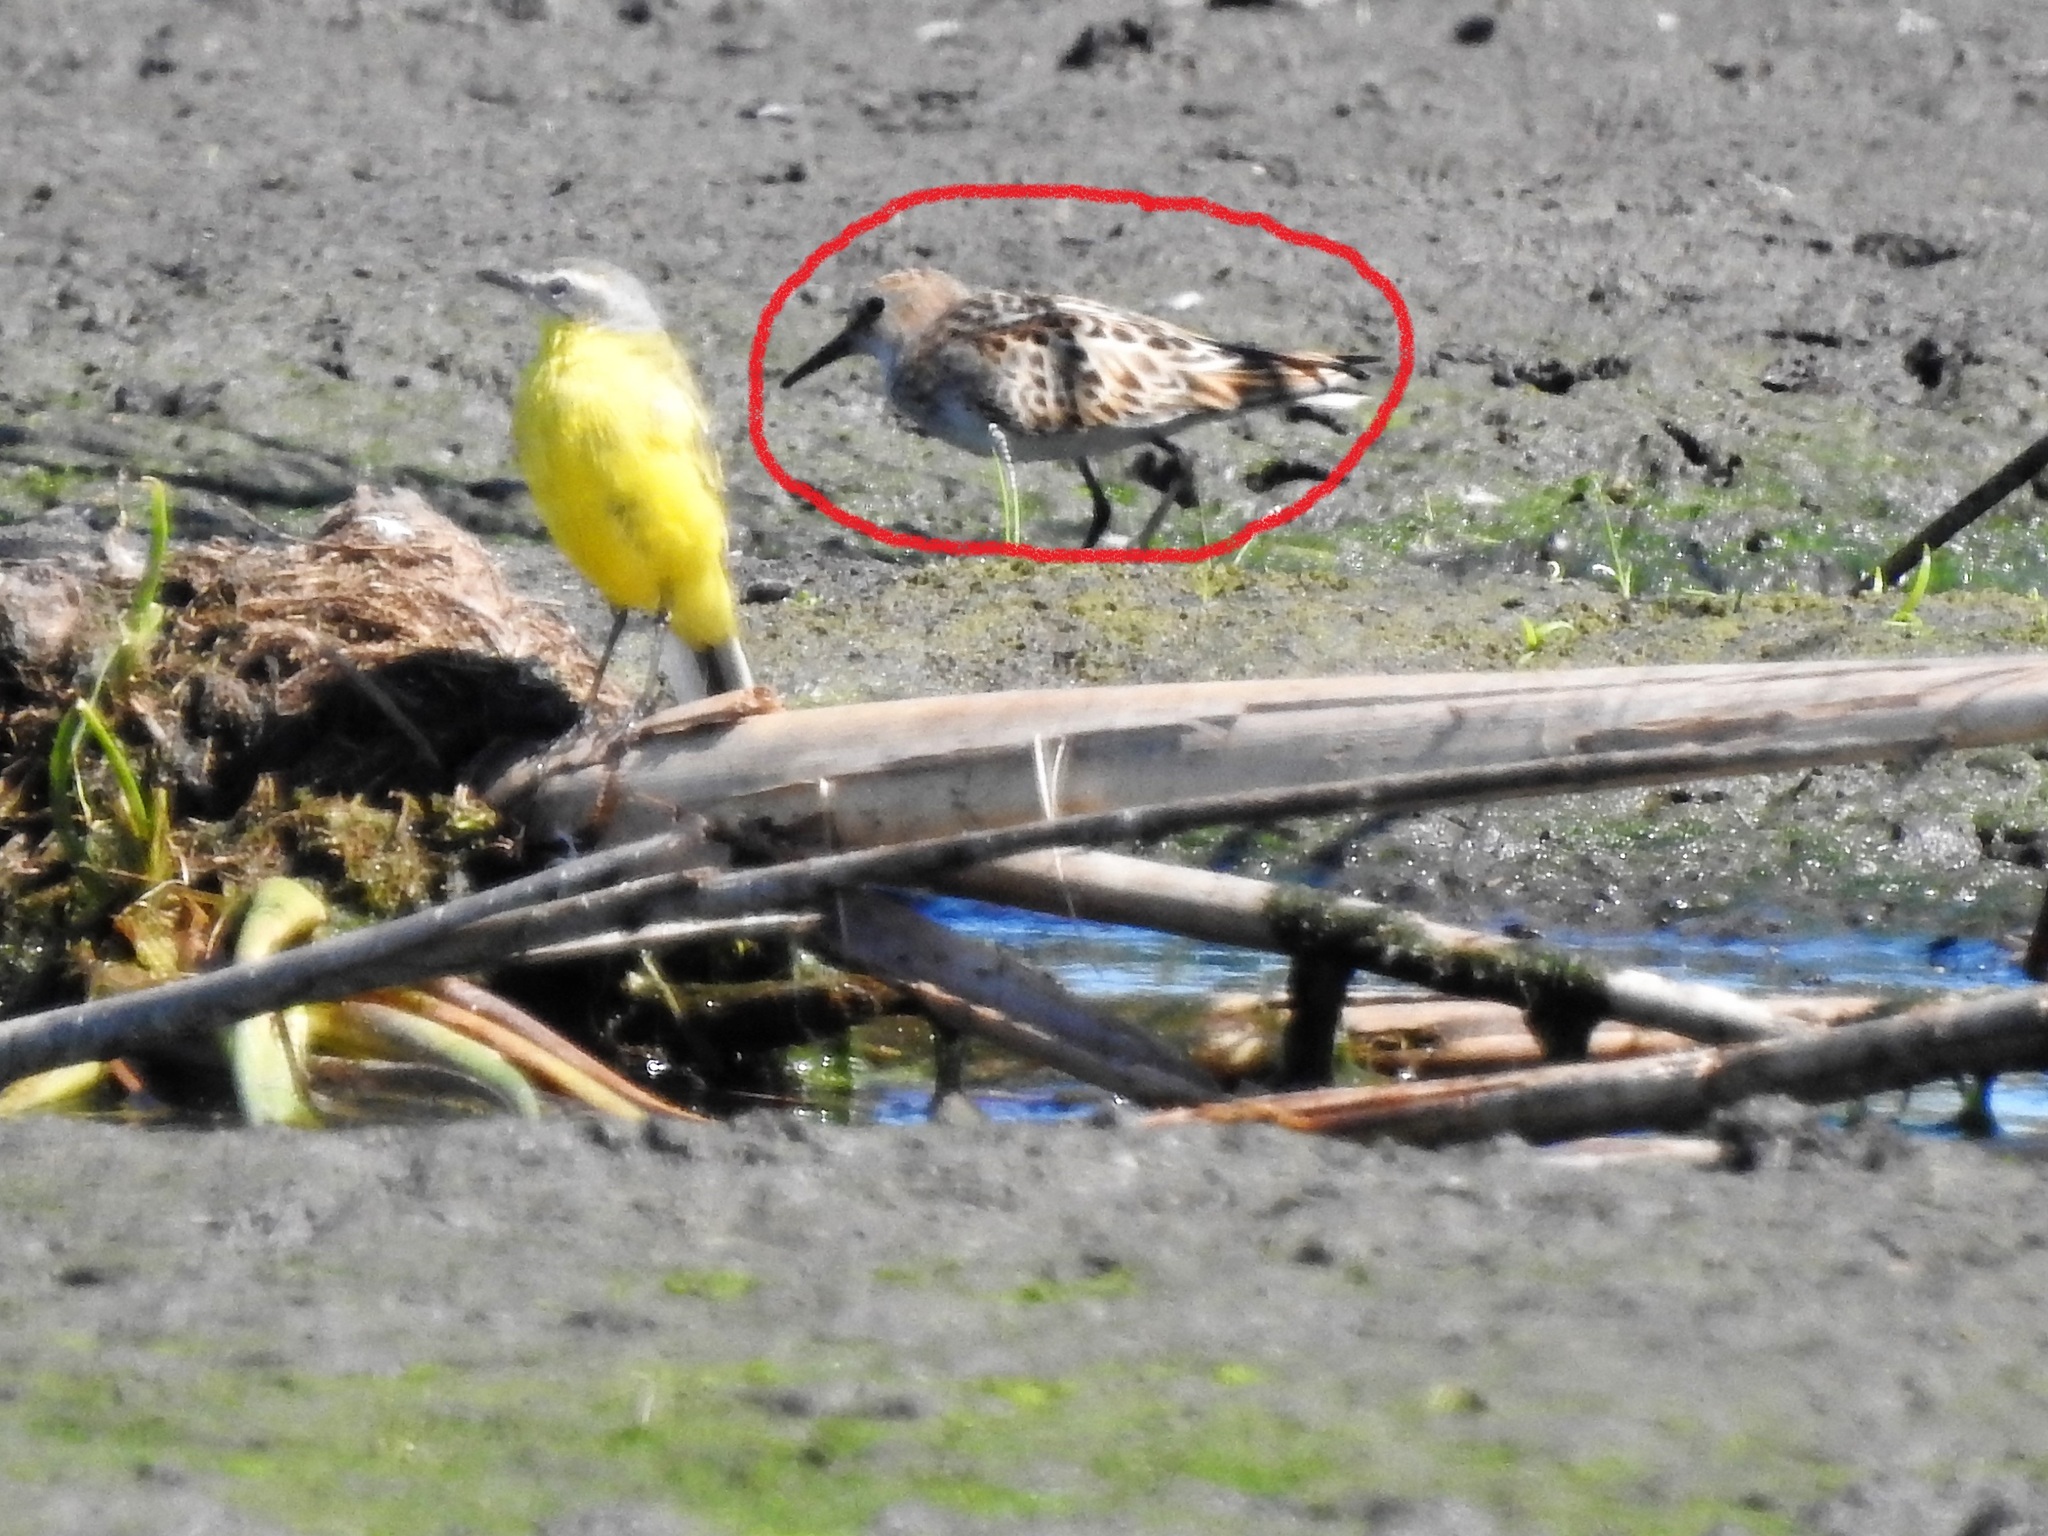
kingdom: Animalia
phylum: Chordata
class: Aves
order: Charadriiformes
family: Scolopacidae
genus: Calidris
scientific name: Calidris minuta
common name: Little stint
